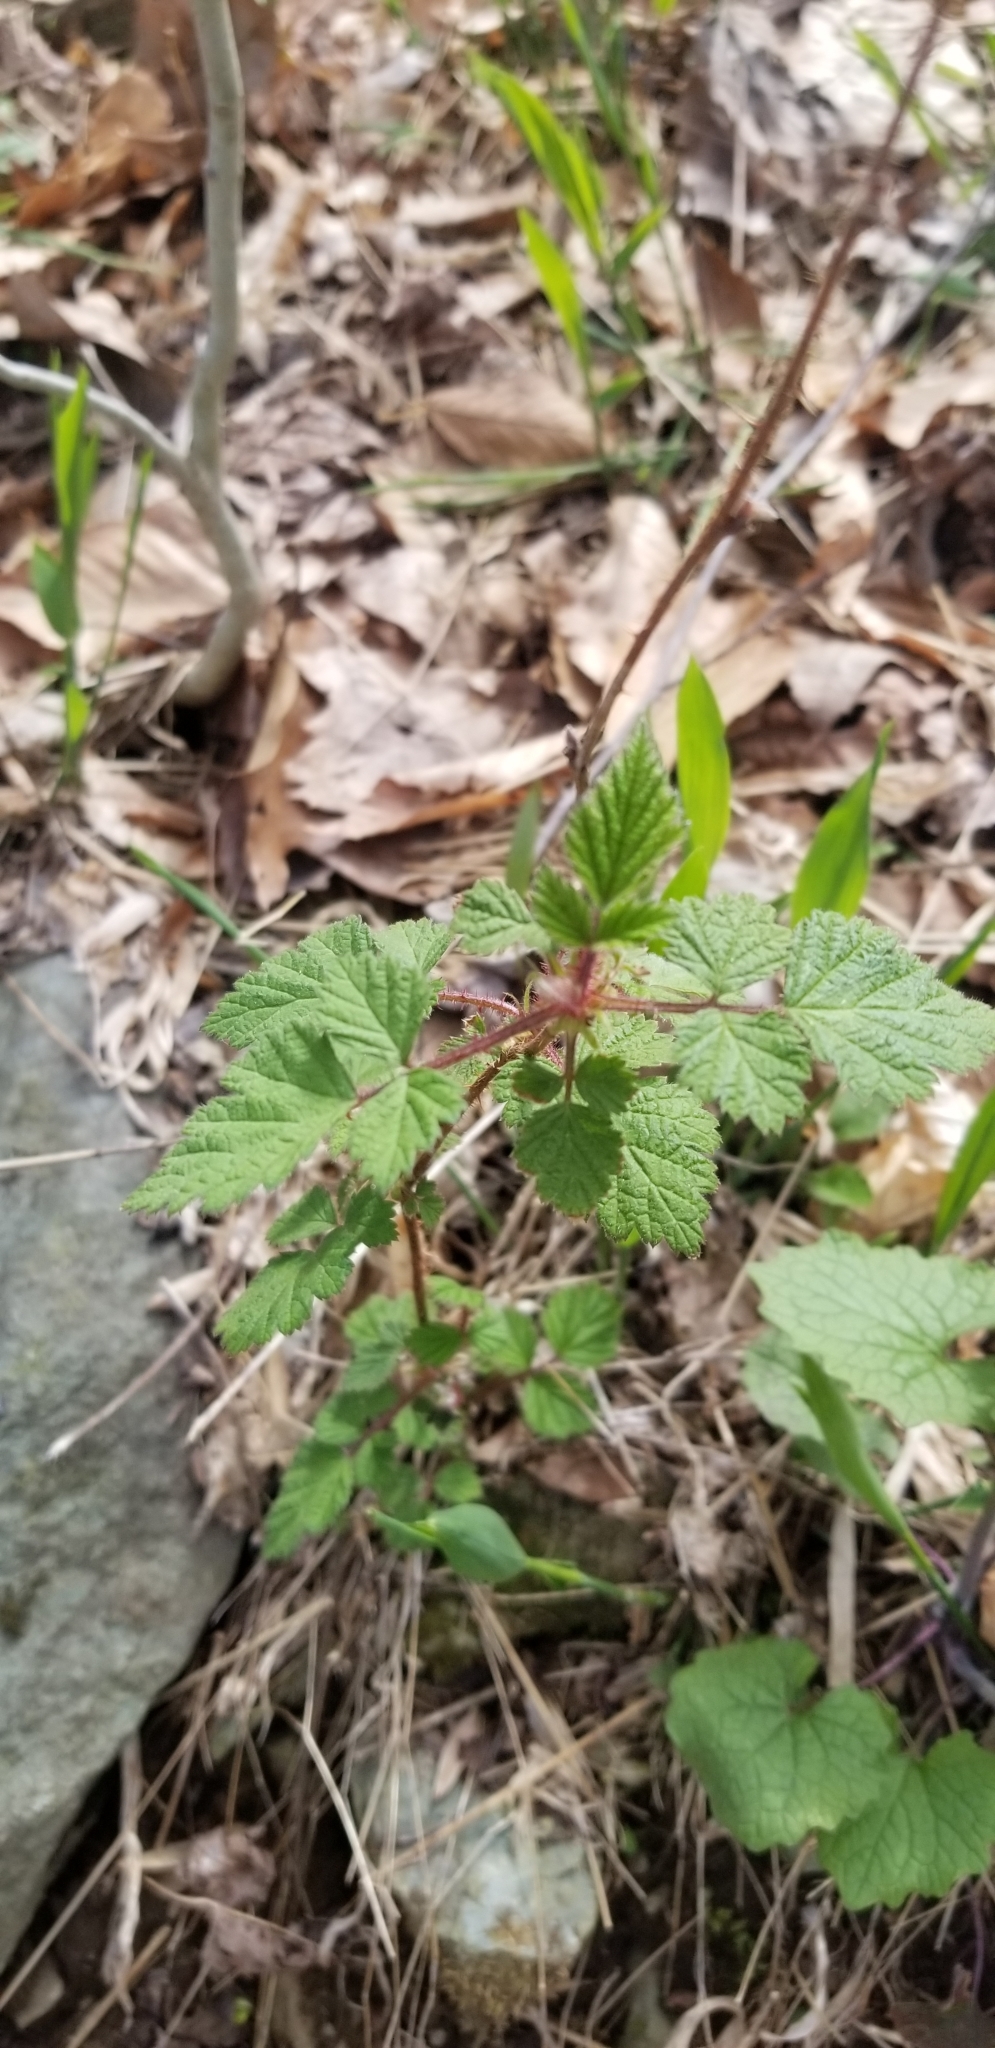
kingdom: Plantae
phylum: Tracheophyta
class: Magnoliopsida
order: Rosales
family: Rosaceae
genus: Rubus
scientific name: Rubus phoenicolasius
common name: Japanese wineberry
